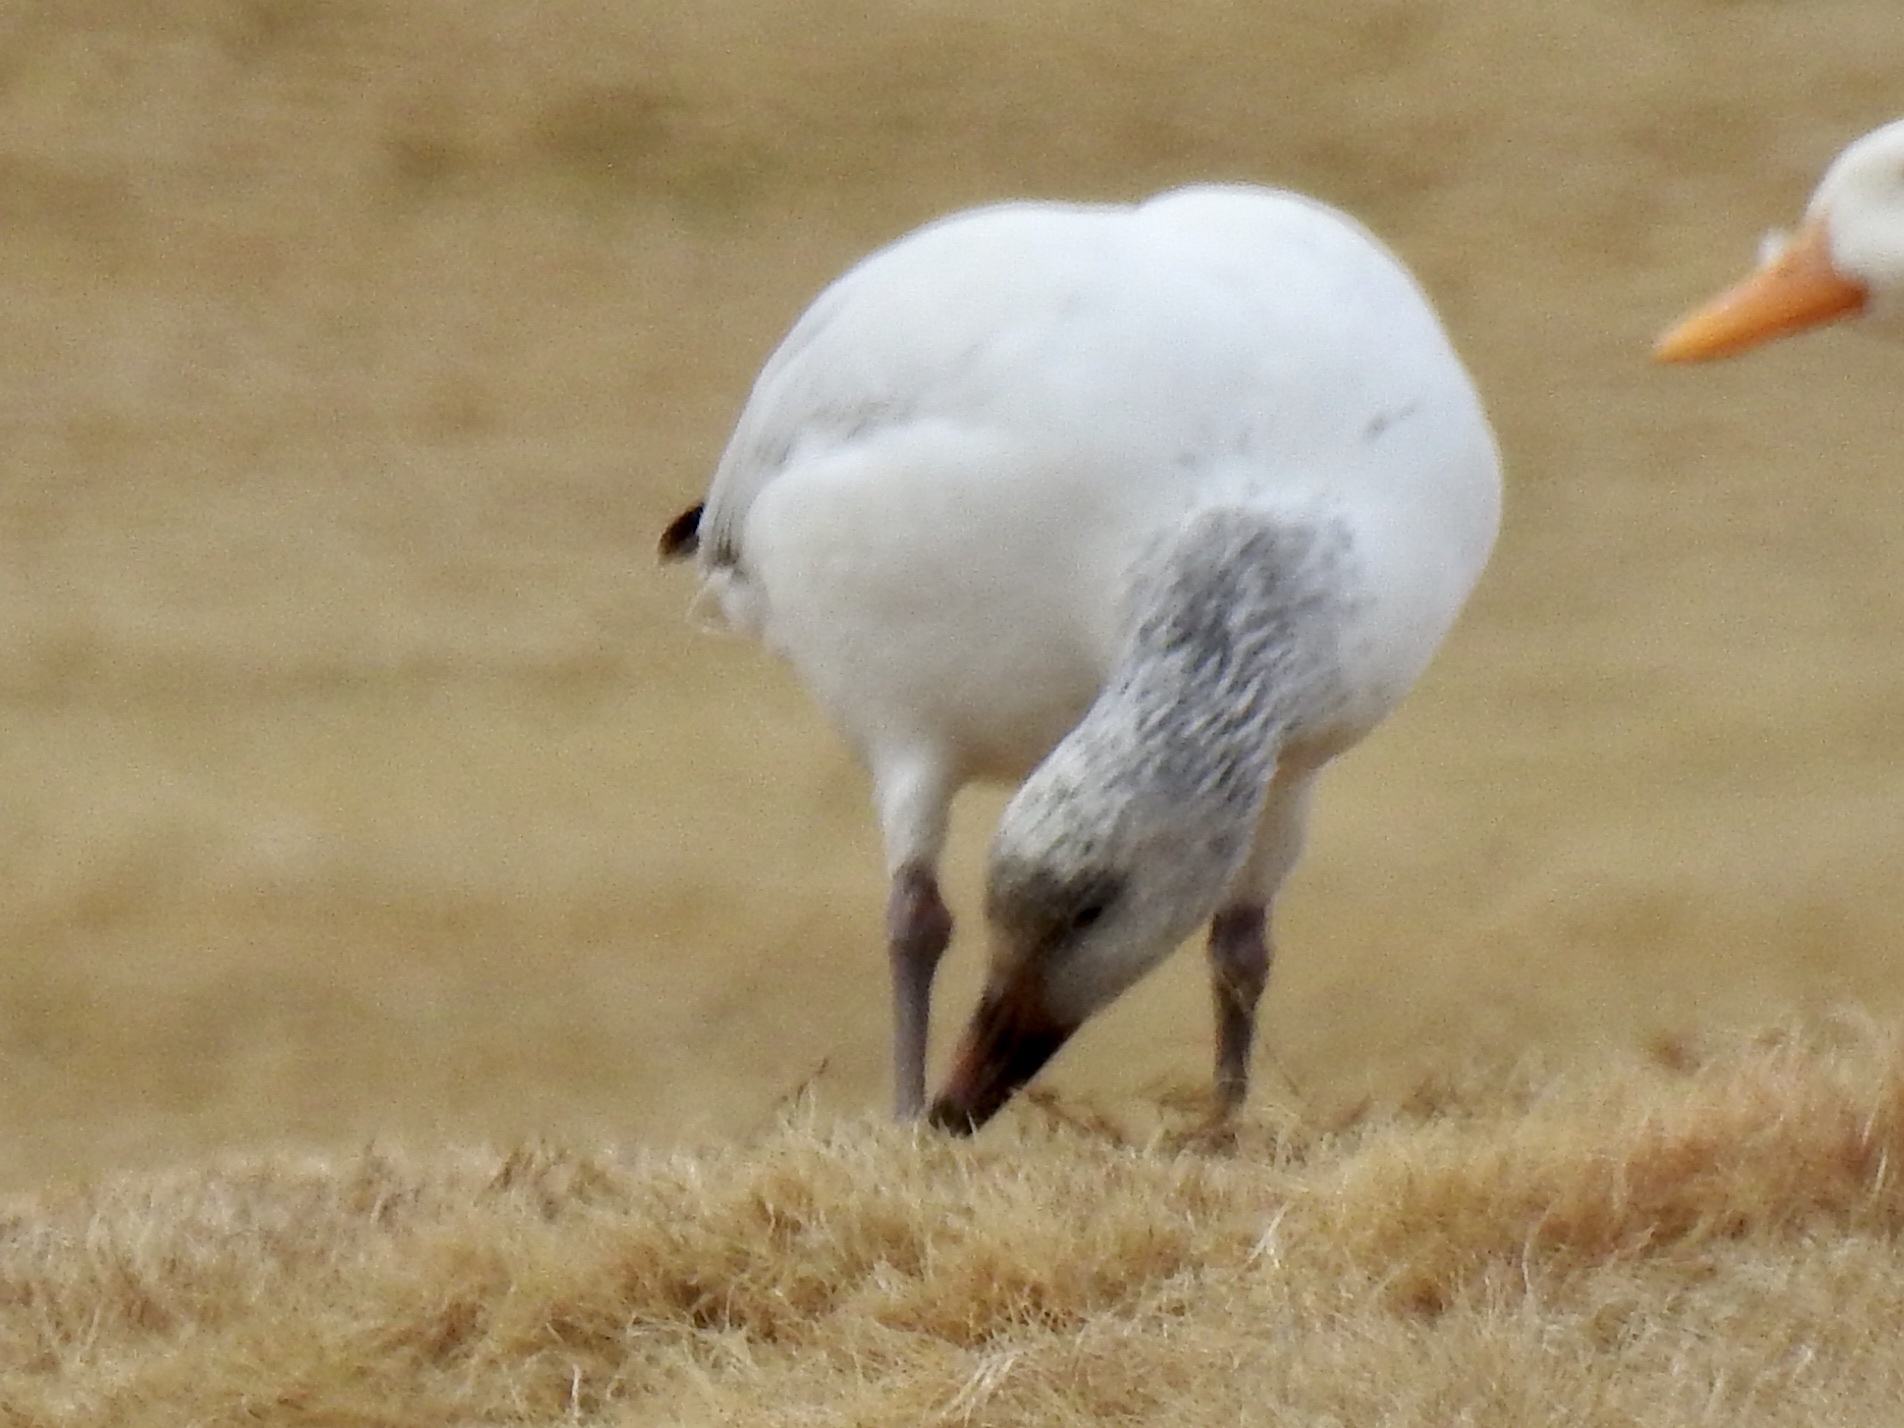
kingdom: Animalia
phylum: Chordata
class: Aves
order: Anseriformes
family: Anatidae
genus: Anser
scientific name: Anser caerulescens
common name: Snow goose
